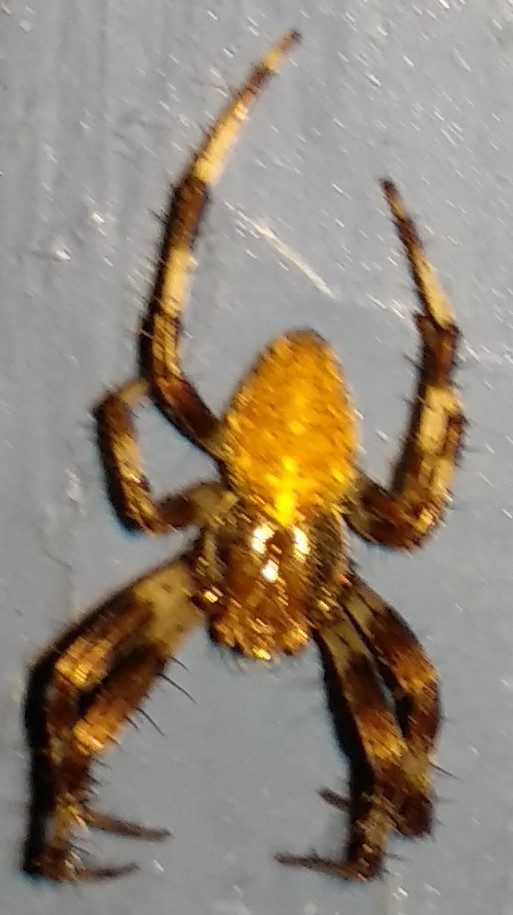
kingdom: Animalia
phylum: Arthropoda
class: Arachnida
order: Araneae
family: Araneidae
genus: Araneus
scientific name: Araneus diadematus
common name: Cross orbweaver
